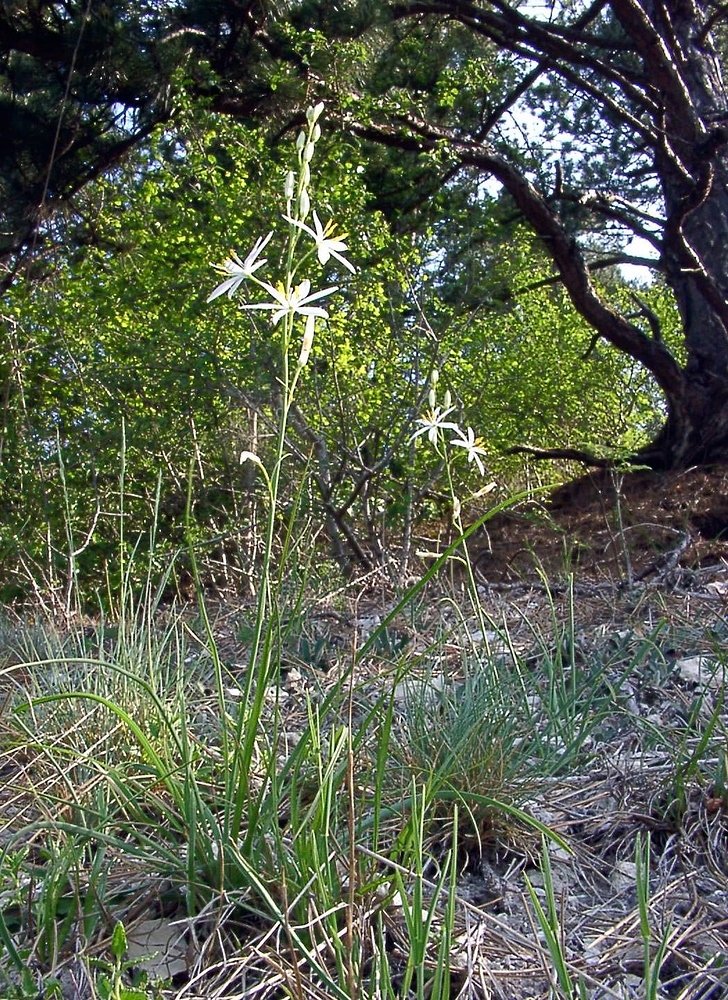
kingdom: Plantae
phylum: Tracheophyta
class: Liliopsida
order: Asparagales
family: Asparagaceae
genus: Anthericum
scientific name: Anthericum liliago
